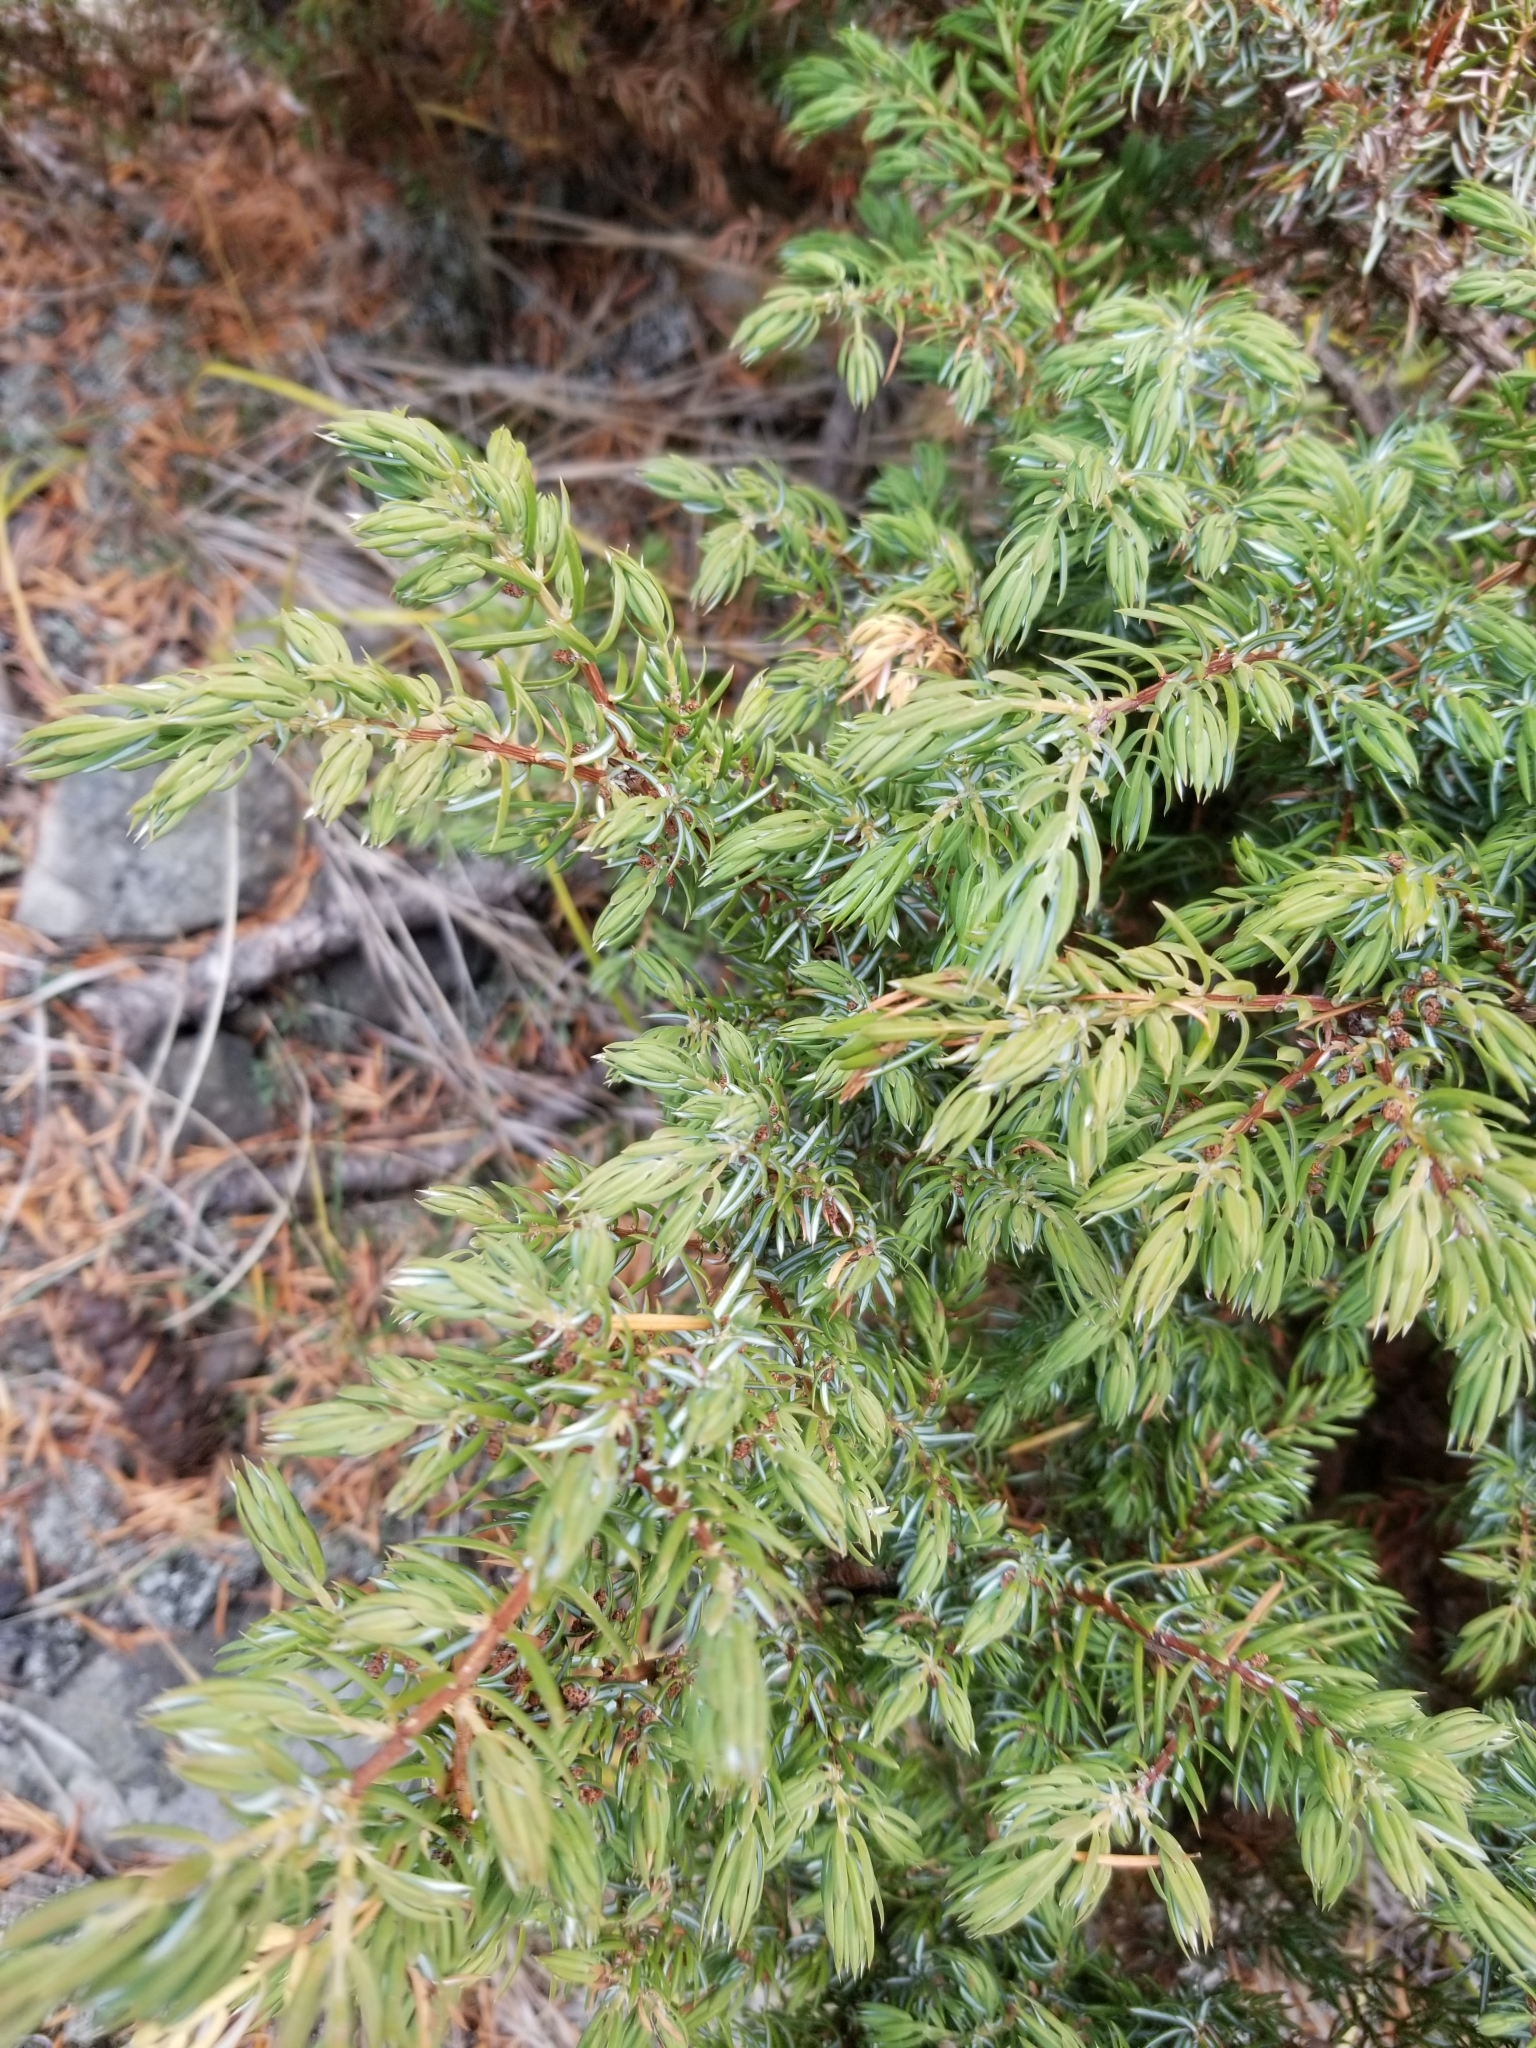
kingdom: Plantae
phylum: Tracheophyta
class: Pinopsida
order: Pinales
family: Cupressaceae
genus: Juniperus
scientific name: Juniperus communis
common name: Common juniper
